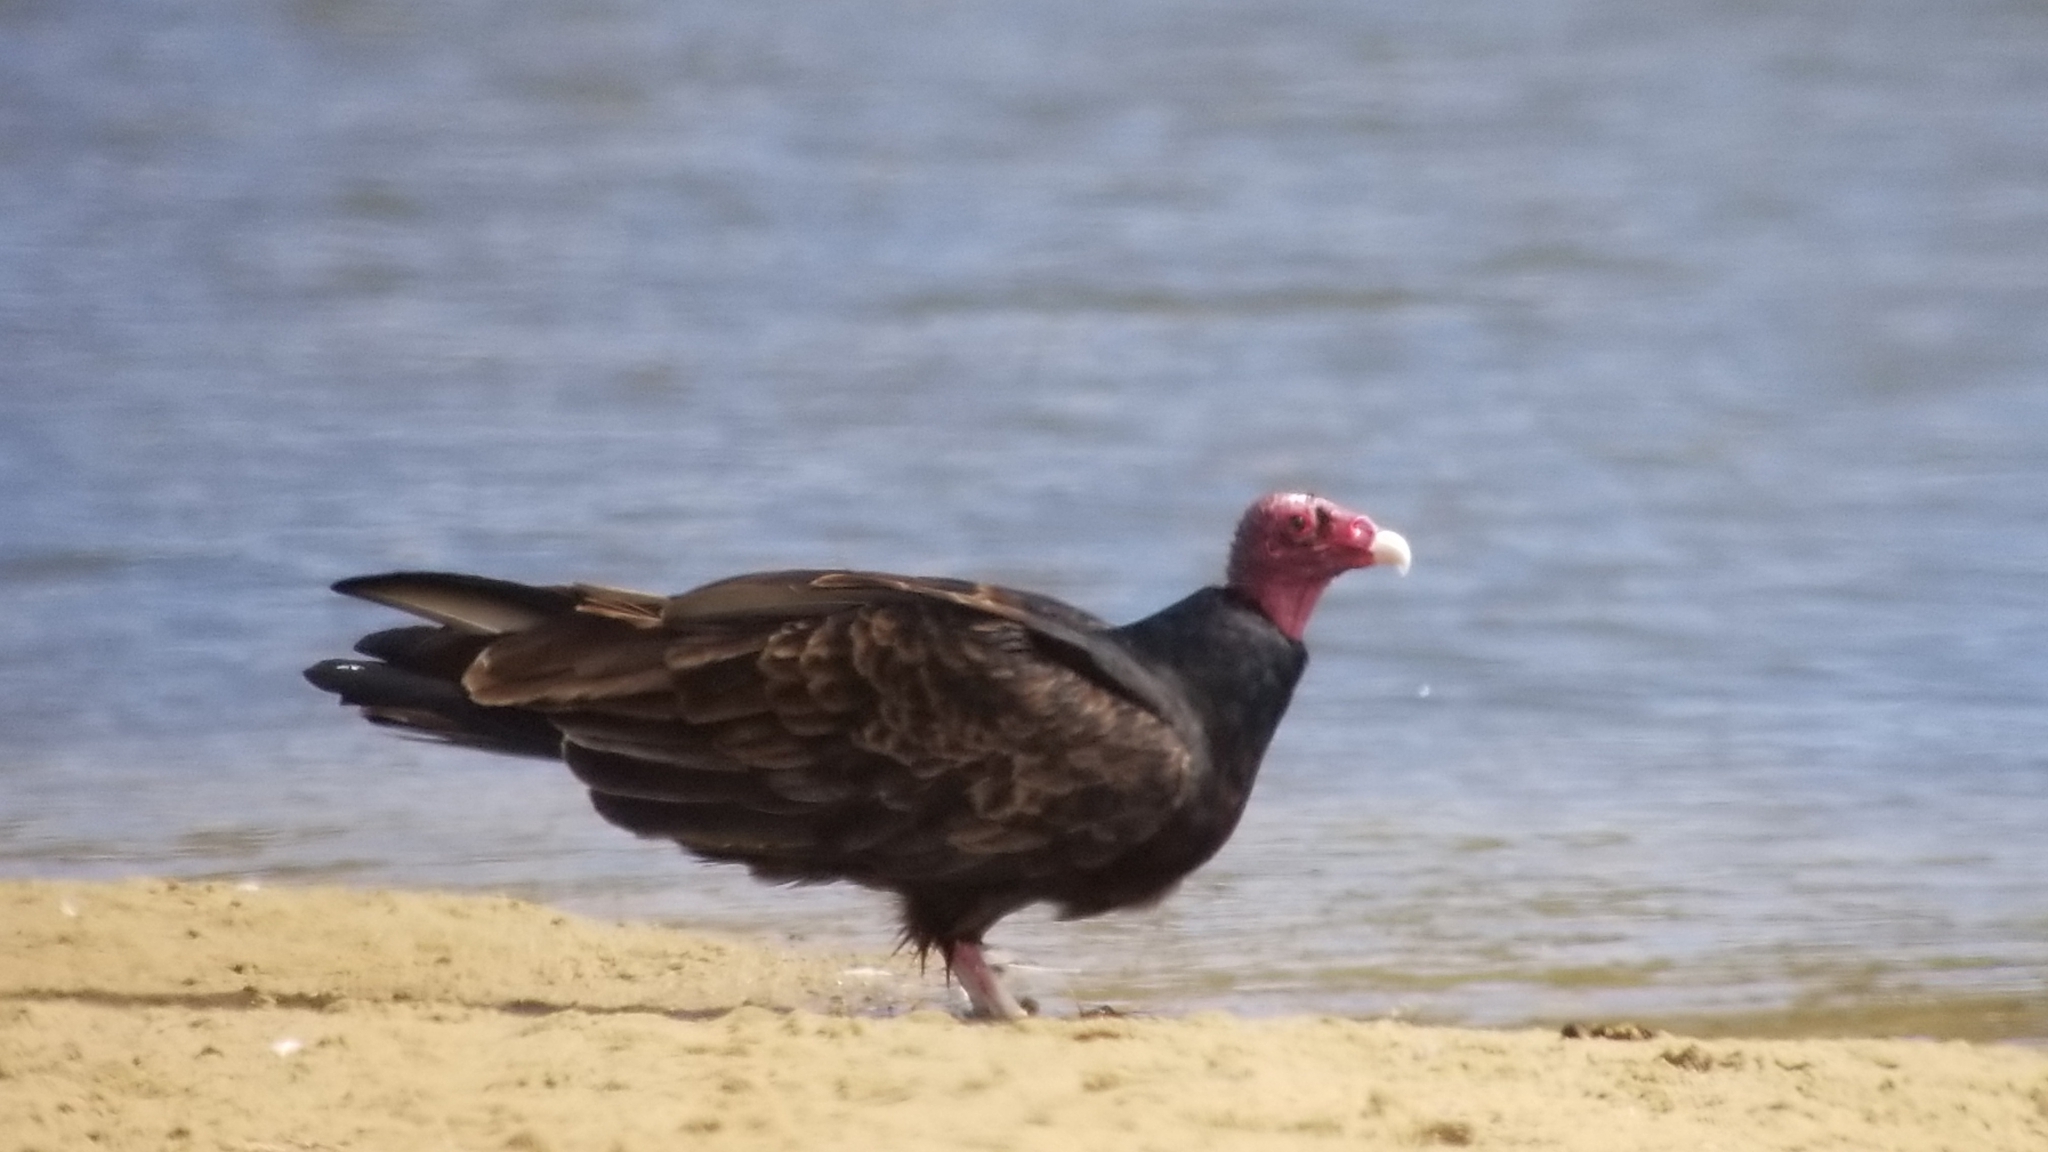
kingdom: Animalia
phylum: Chordata
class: Aves
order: Accipitriformes
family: Cathartidae
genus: Cathartes
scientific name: Cathartes aura
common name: Turkey vulture
